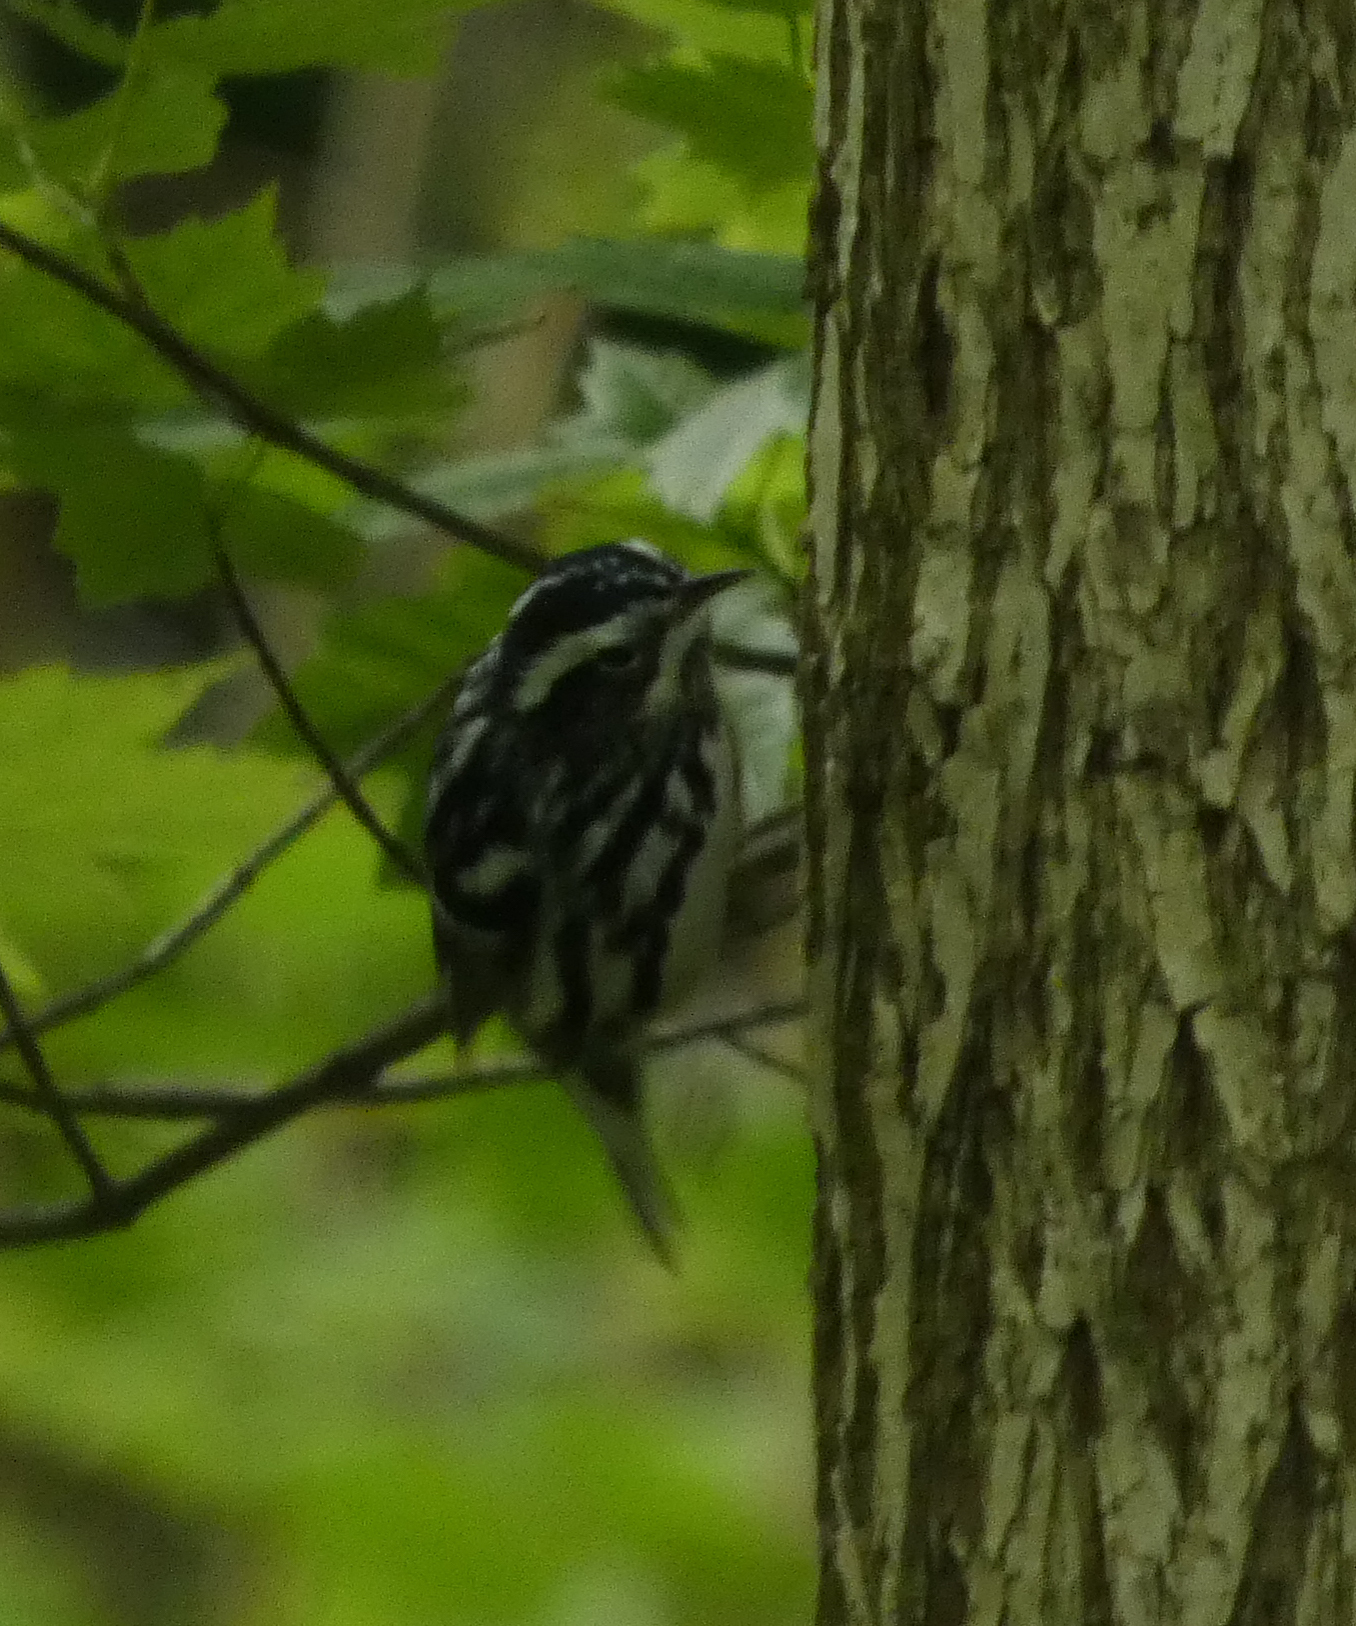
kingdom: Animalia
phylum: Chordata
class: Aves
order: Passeriformes
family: Parulidae
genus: Mniotilta
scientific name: Mniotilta varia
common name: Black-and-white warbler
